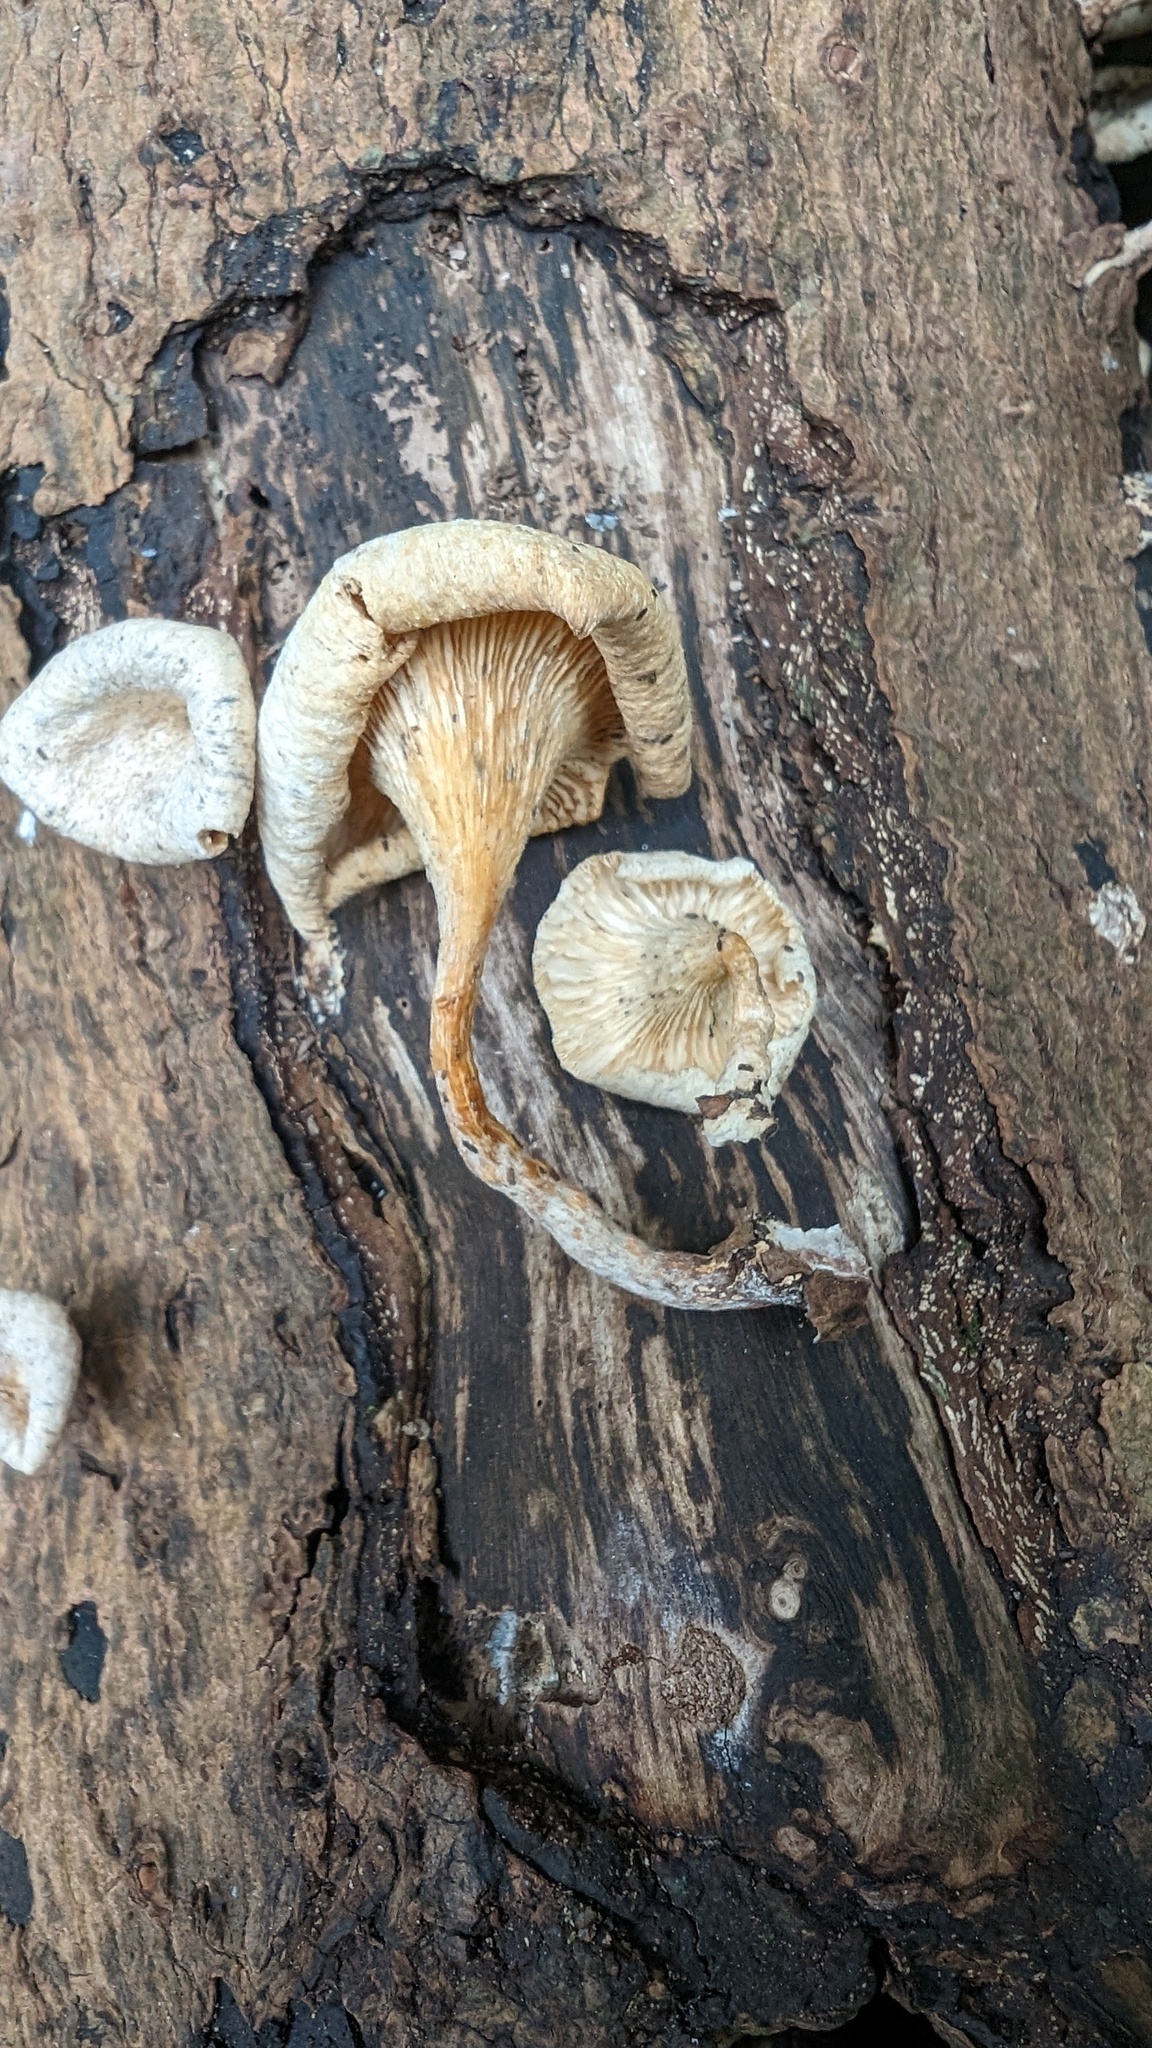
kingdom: Fungi
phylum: Basidiomycota
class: Agaricomycetes
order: Polyporales
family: Polyporaceae
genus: Lentinus
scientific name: Lentinus squarrosulus
